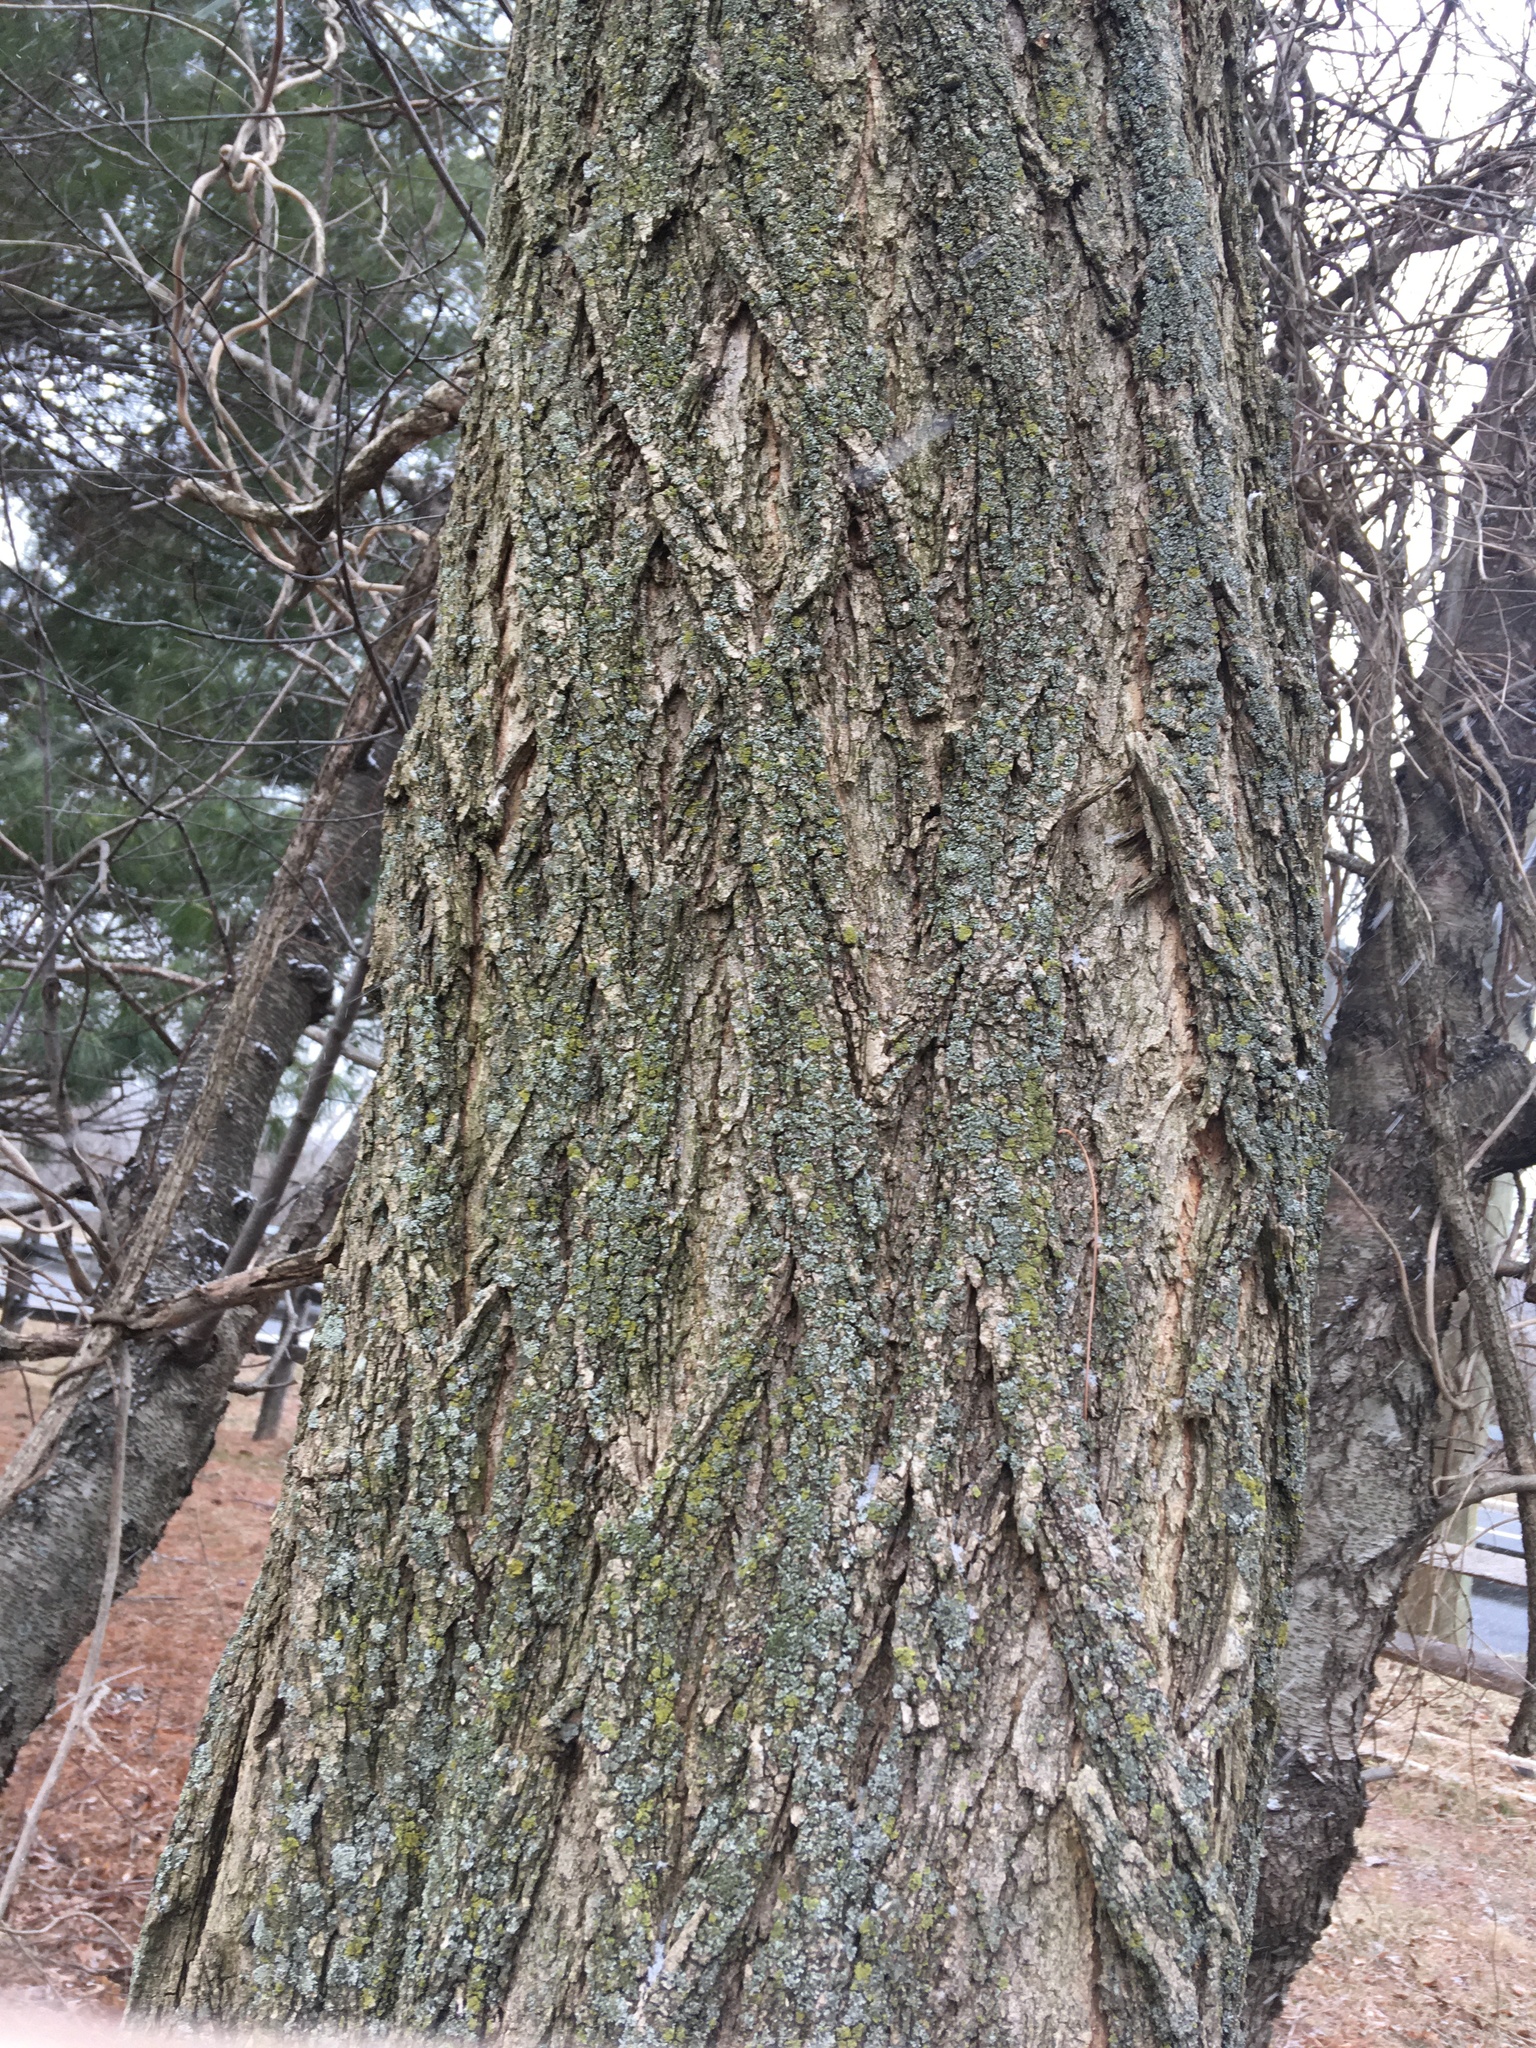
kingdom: Plantae
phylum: Tracheophyta
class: Magnoliopsida
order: Fabales
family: Fabaceae
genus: Robinia
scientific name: Robinia pseudoacacia
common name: Black locust
